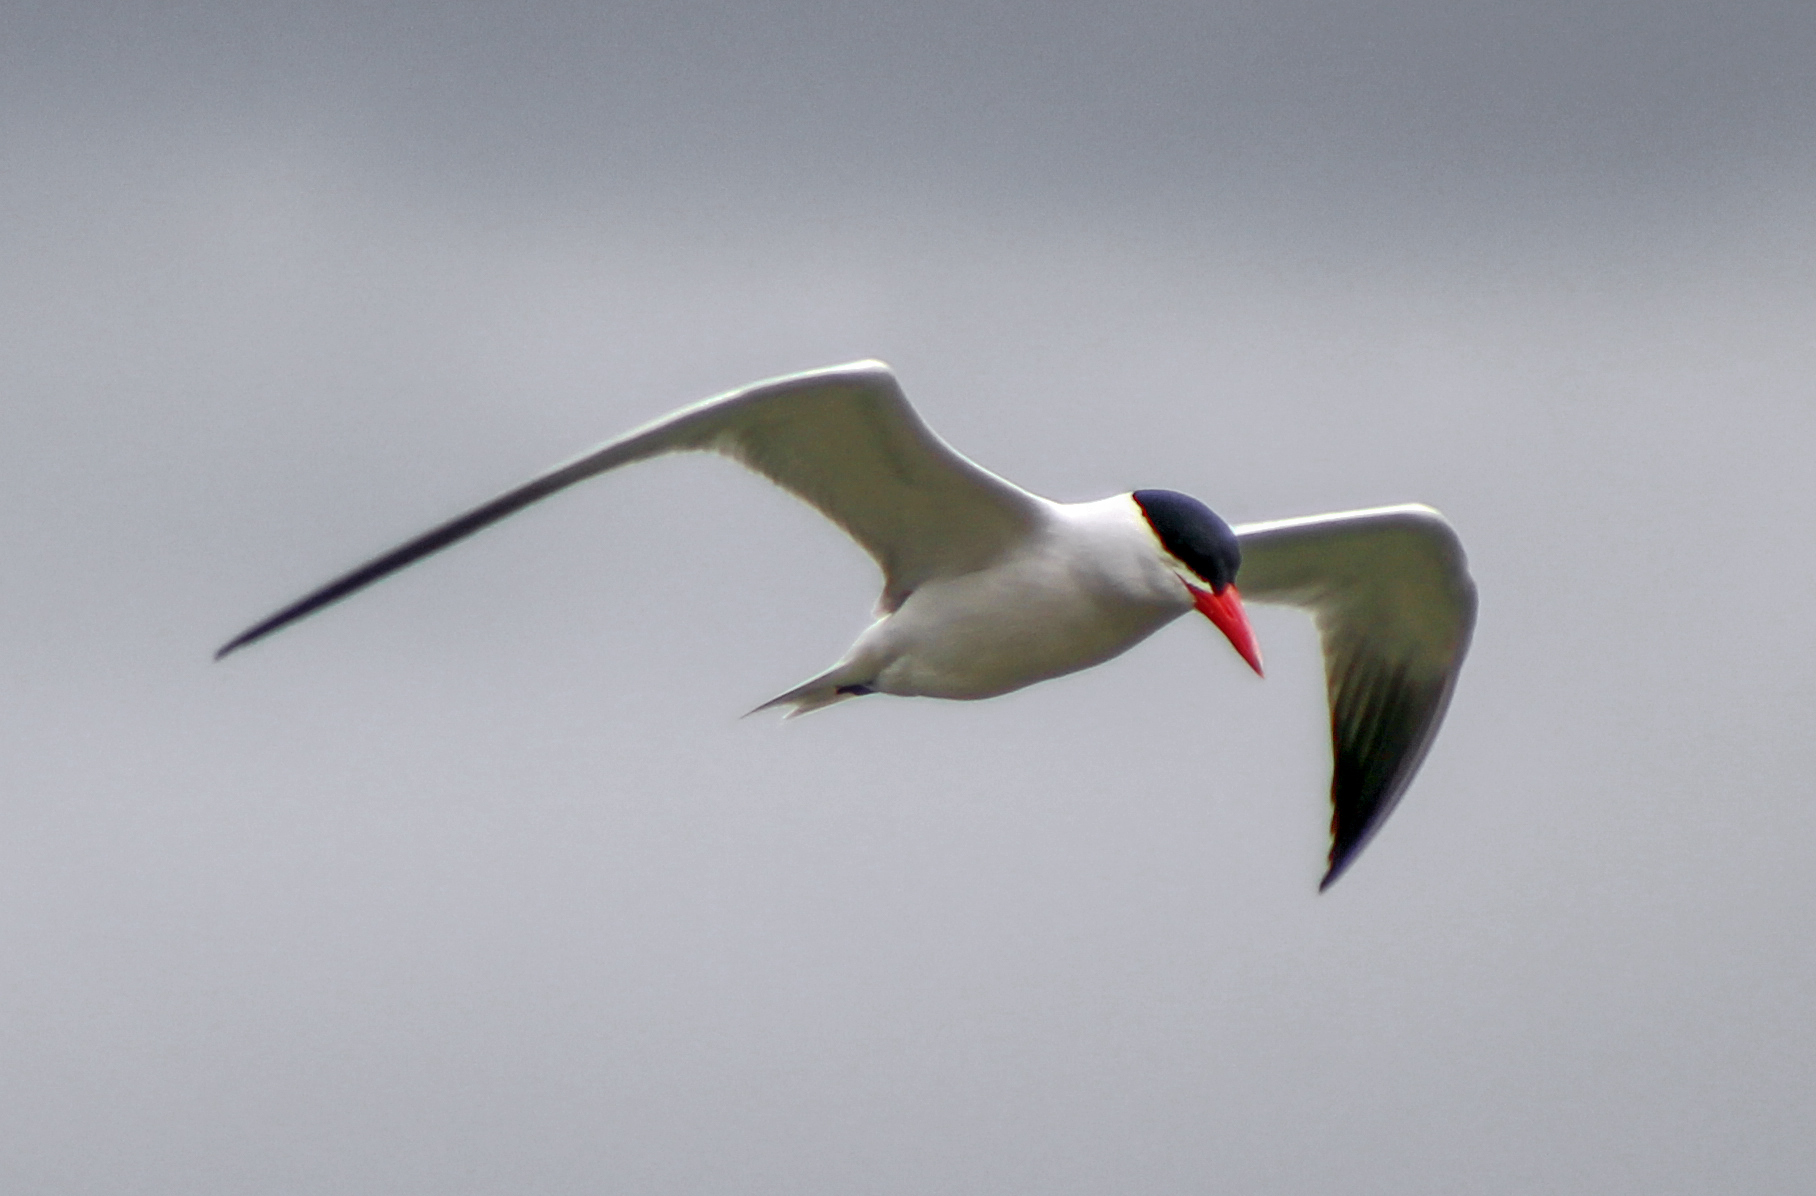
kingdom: Animalia
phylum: Chordata
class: Aves
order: Charadriiformes
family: Laridae
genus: Hydroprogne
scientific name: Hydroprogne caspia
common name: Caspian tern
